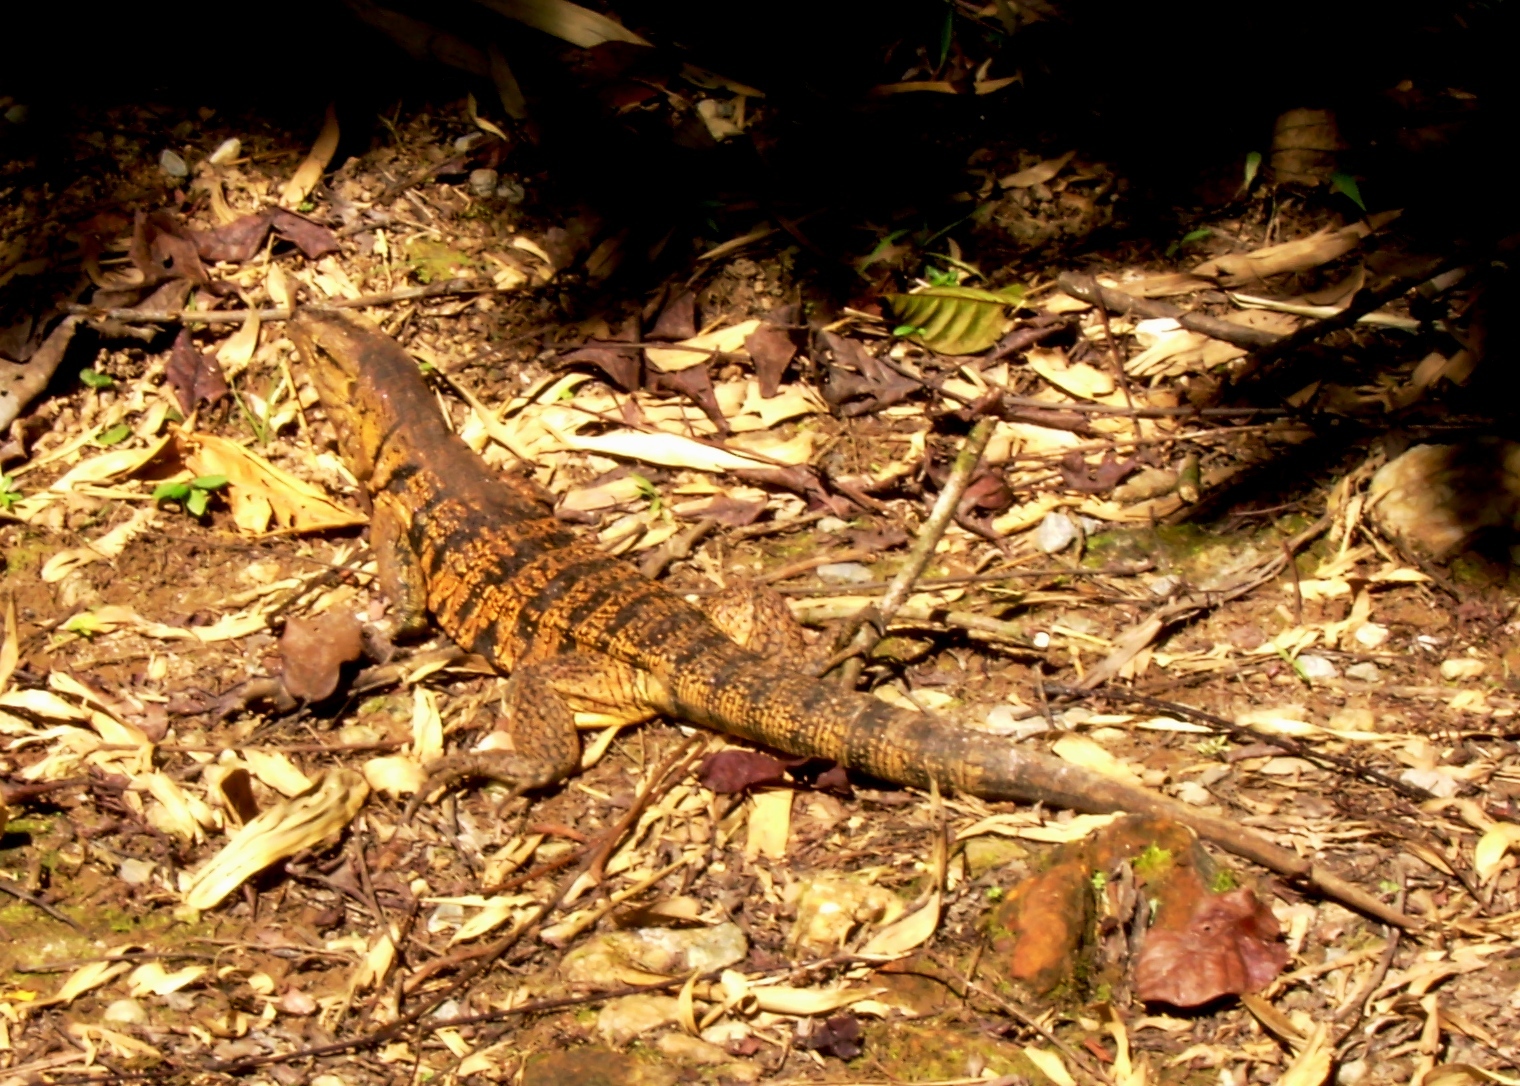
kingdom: Animalia
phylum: Chordata
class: Squamata
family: Teiidae
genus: Tupinambis
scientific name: Tupinambis cryptus
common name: Cryptic golden tegu
